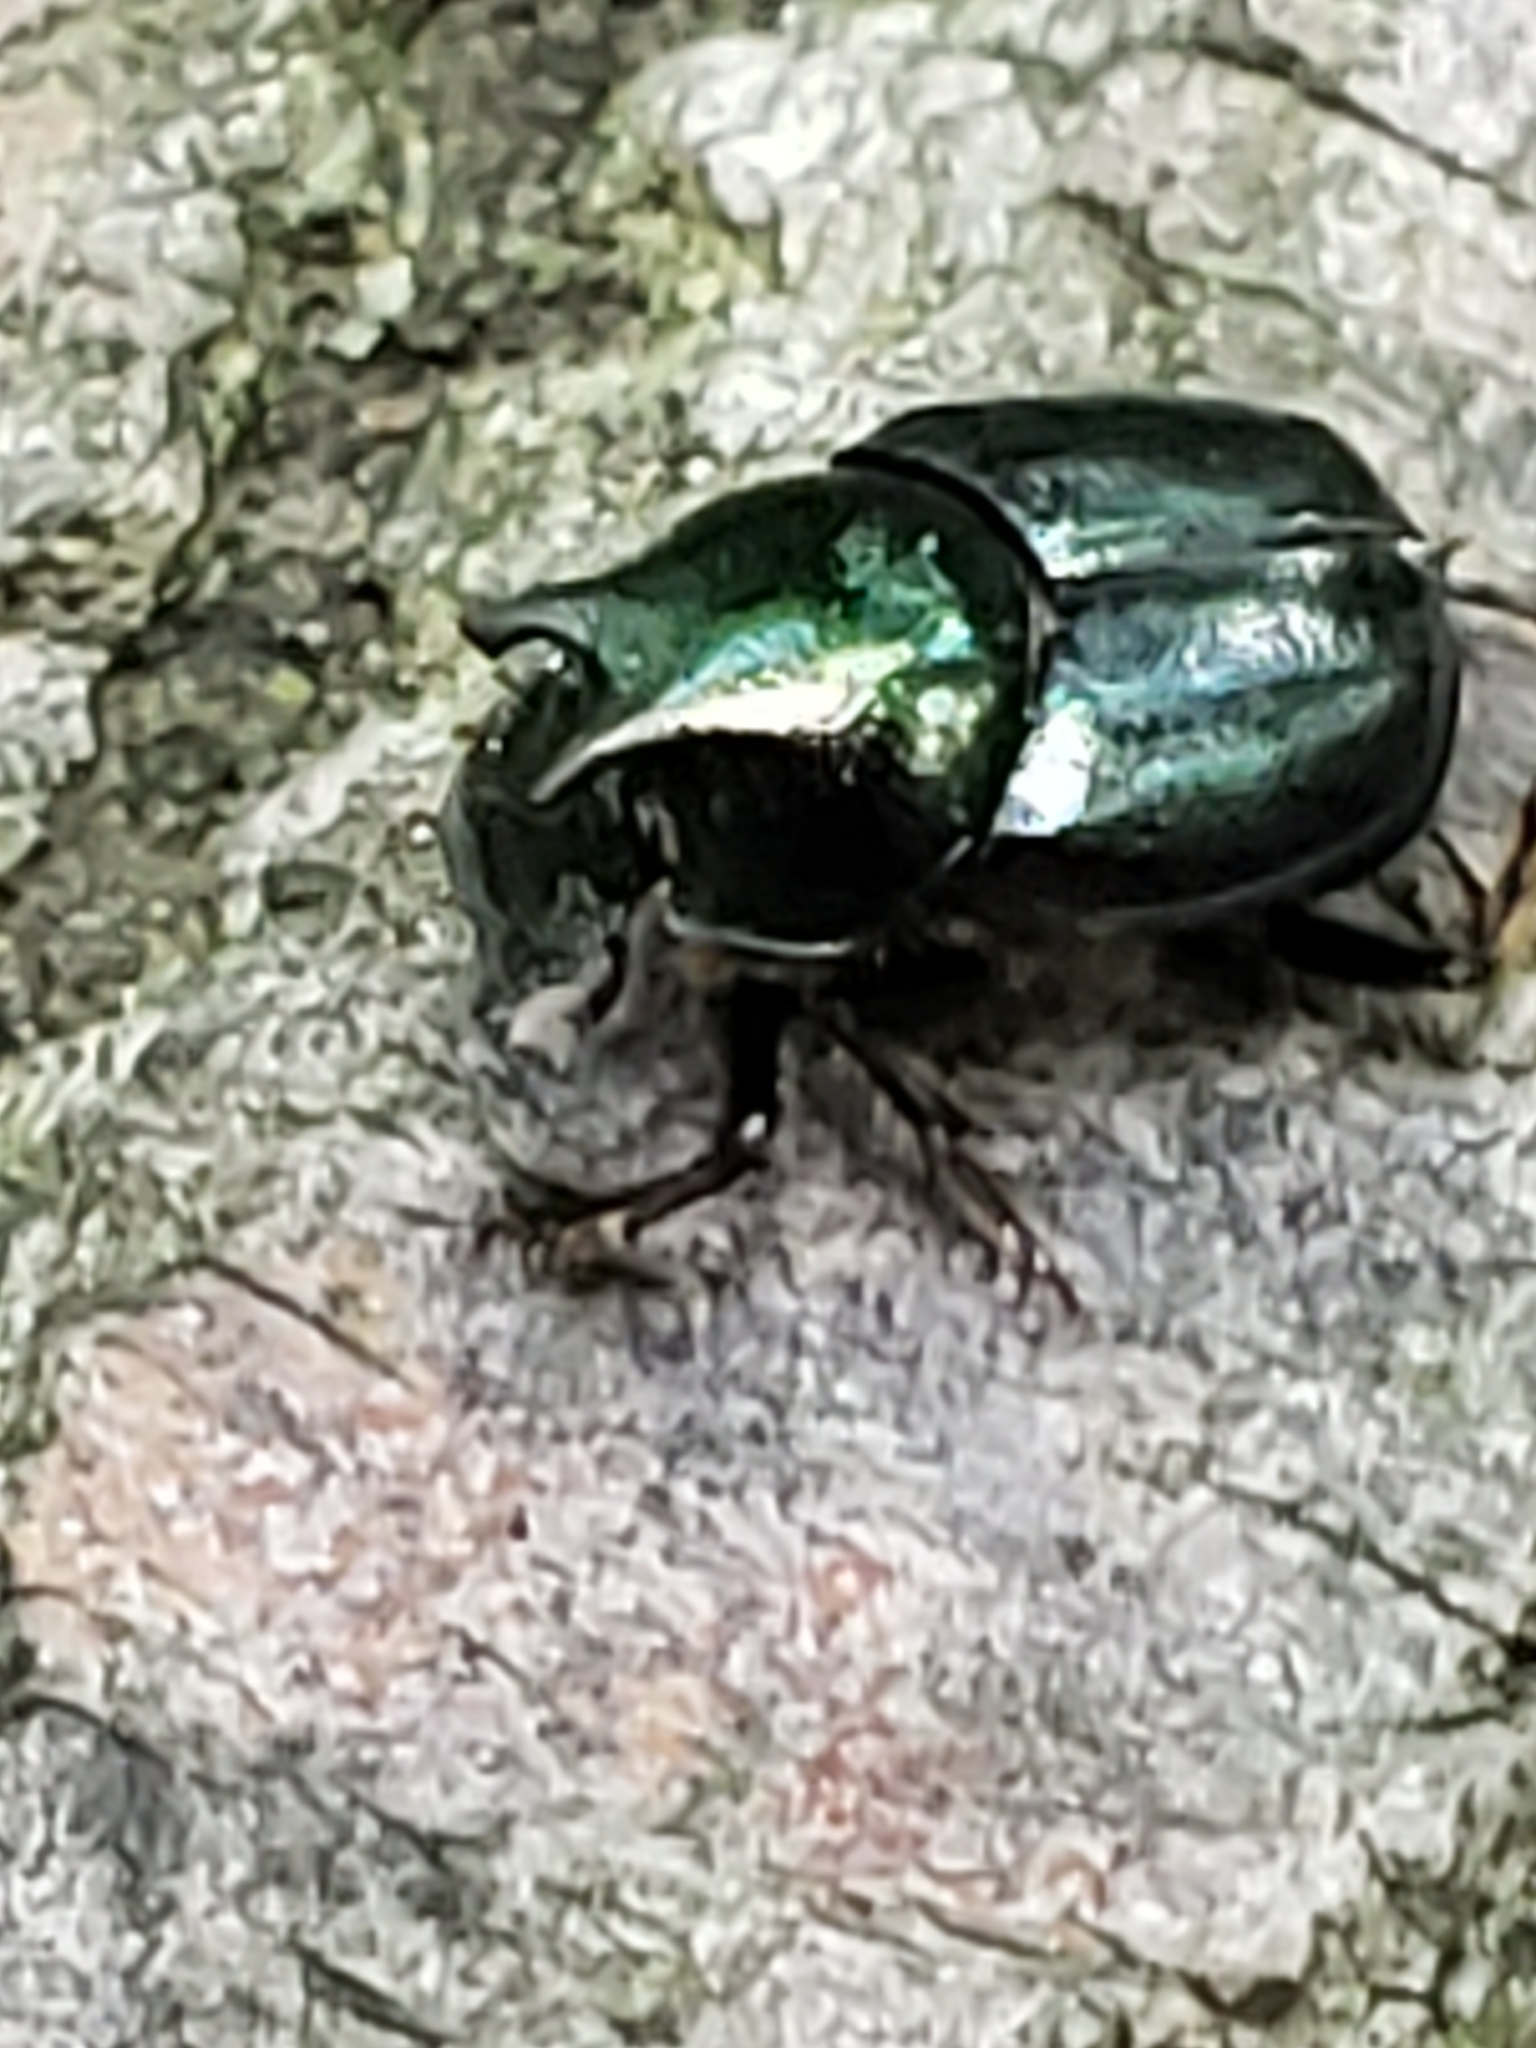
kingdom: Animalia
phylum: Arthropoda
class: Insecta
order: Coleoptera
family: Scarabaeidae
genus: Onthophagus
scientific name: Onthophagus orpheus
